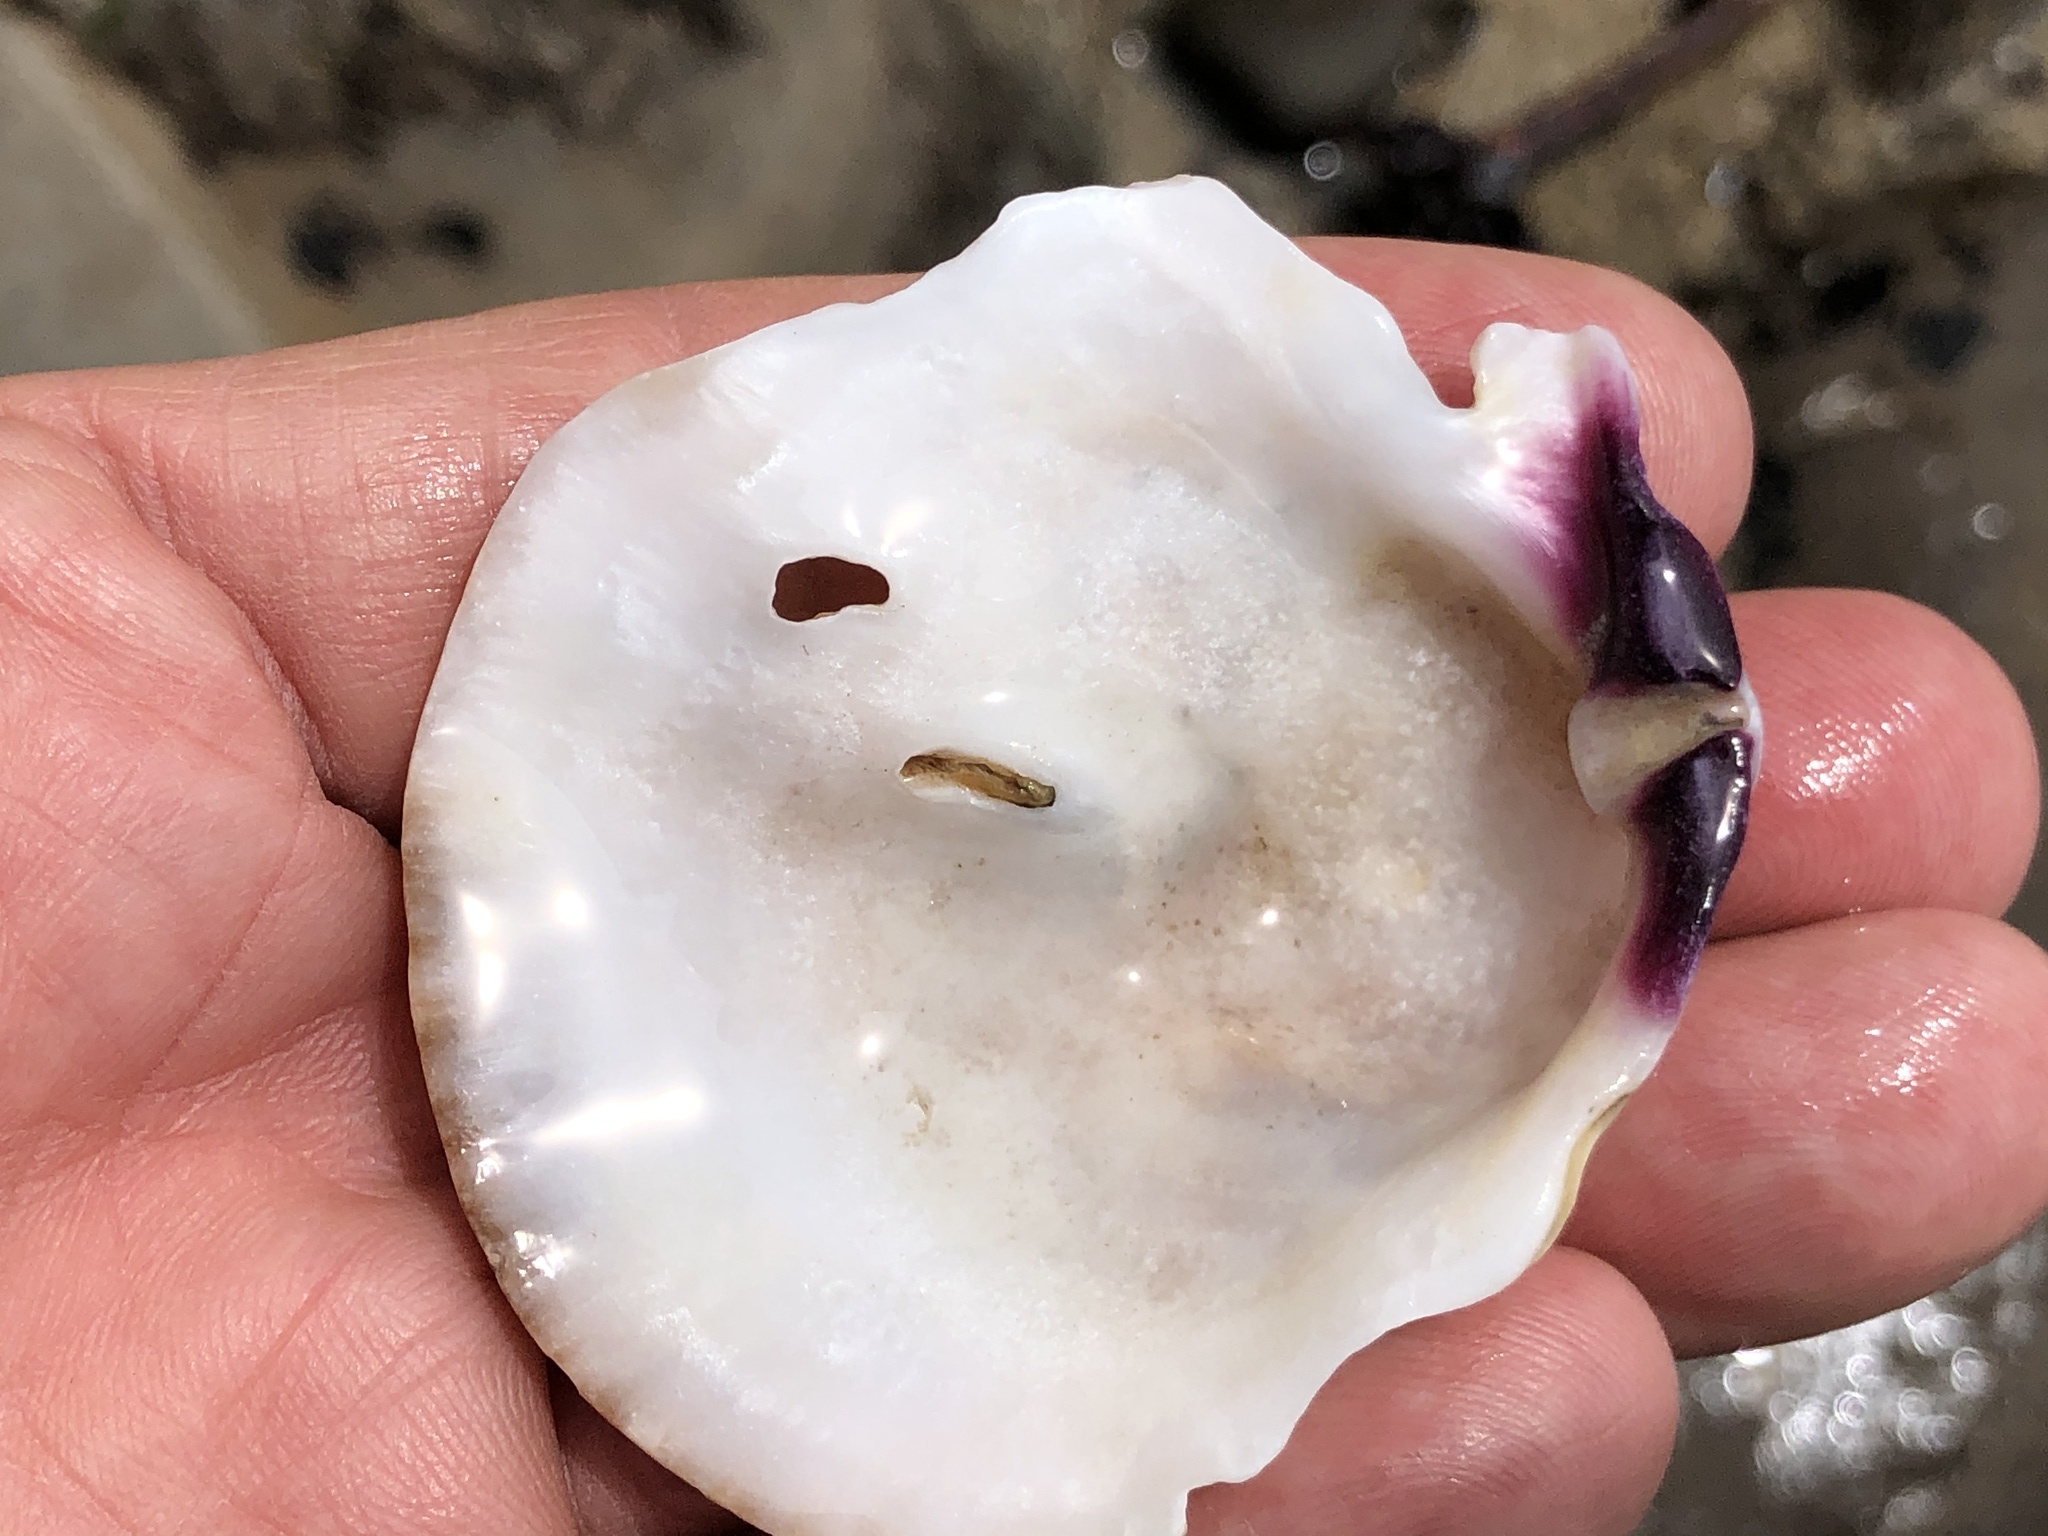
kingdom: Animalia
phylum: Mollusca
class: Bivalvia
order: Pectinida
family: Pectinidae
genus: Crassadoma
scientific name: Crassadoma gigantea
